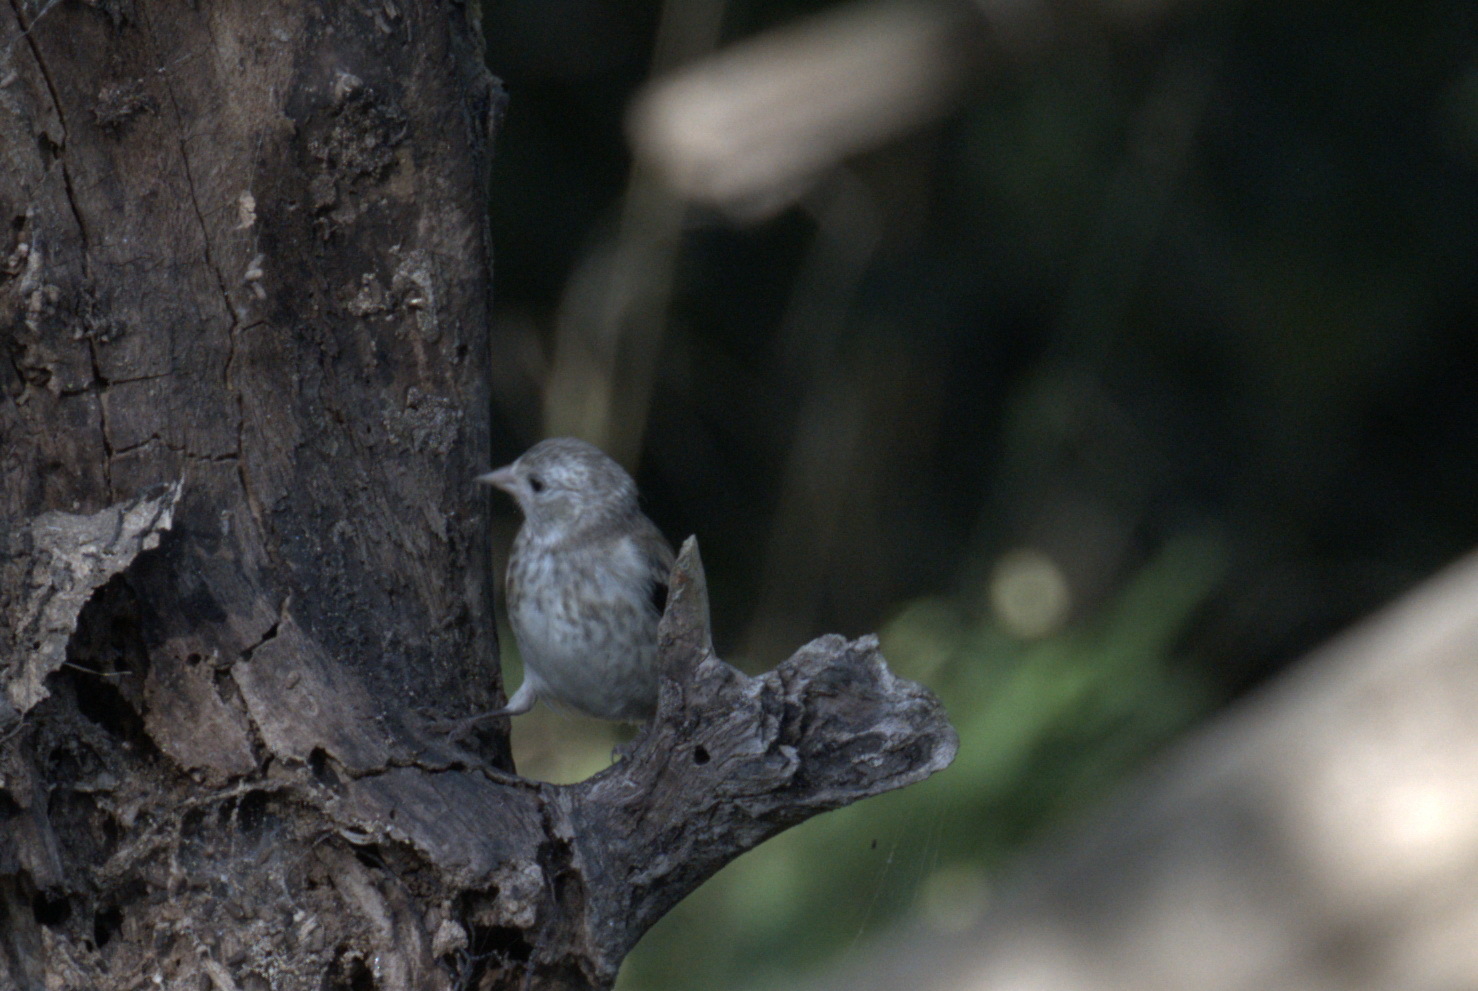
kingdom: Animalia
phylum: Chordata
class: Aves
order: Passeriformes
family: Fringillidae
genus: Carduelis
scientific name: Carduelis carduelis
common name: European goldfinch
